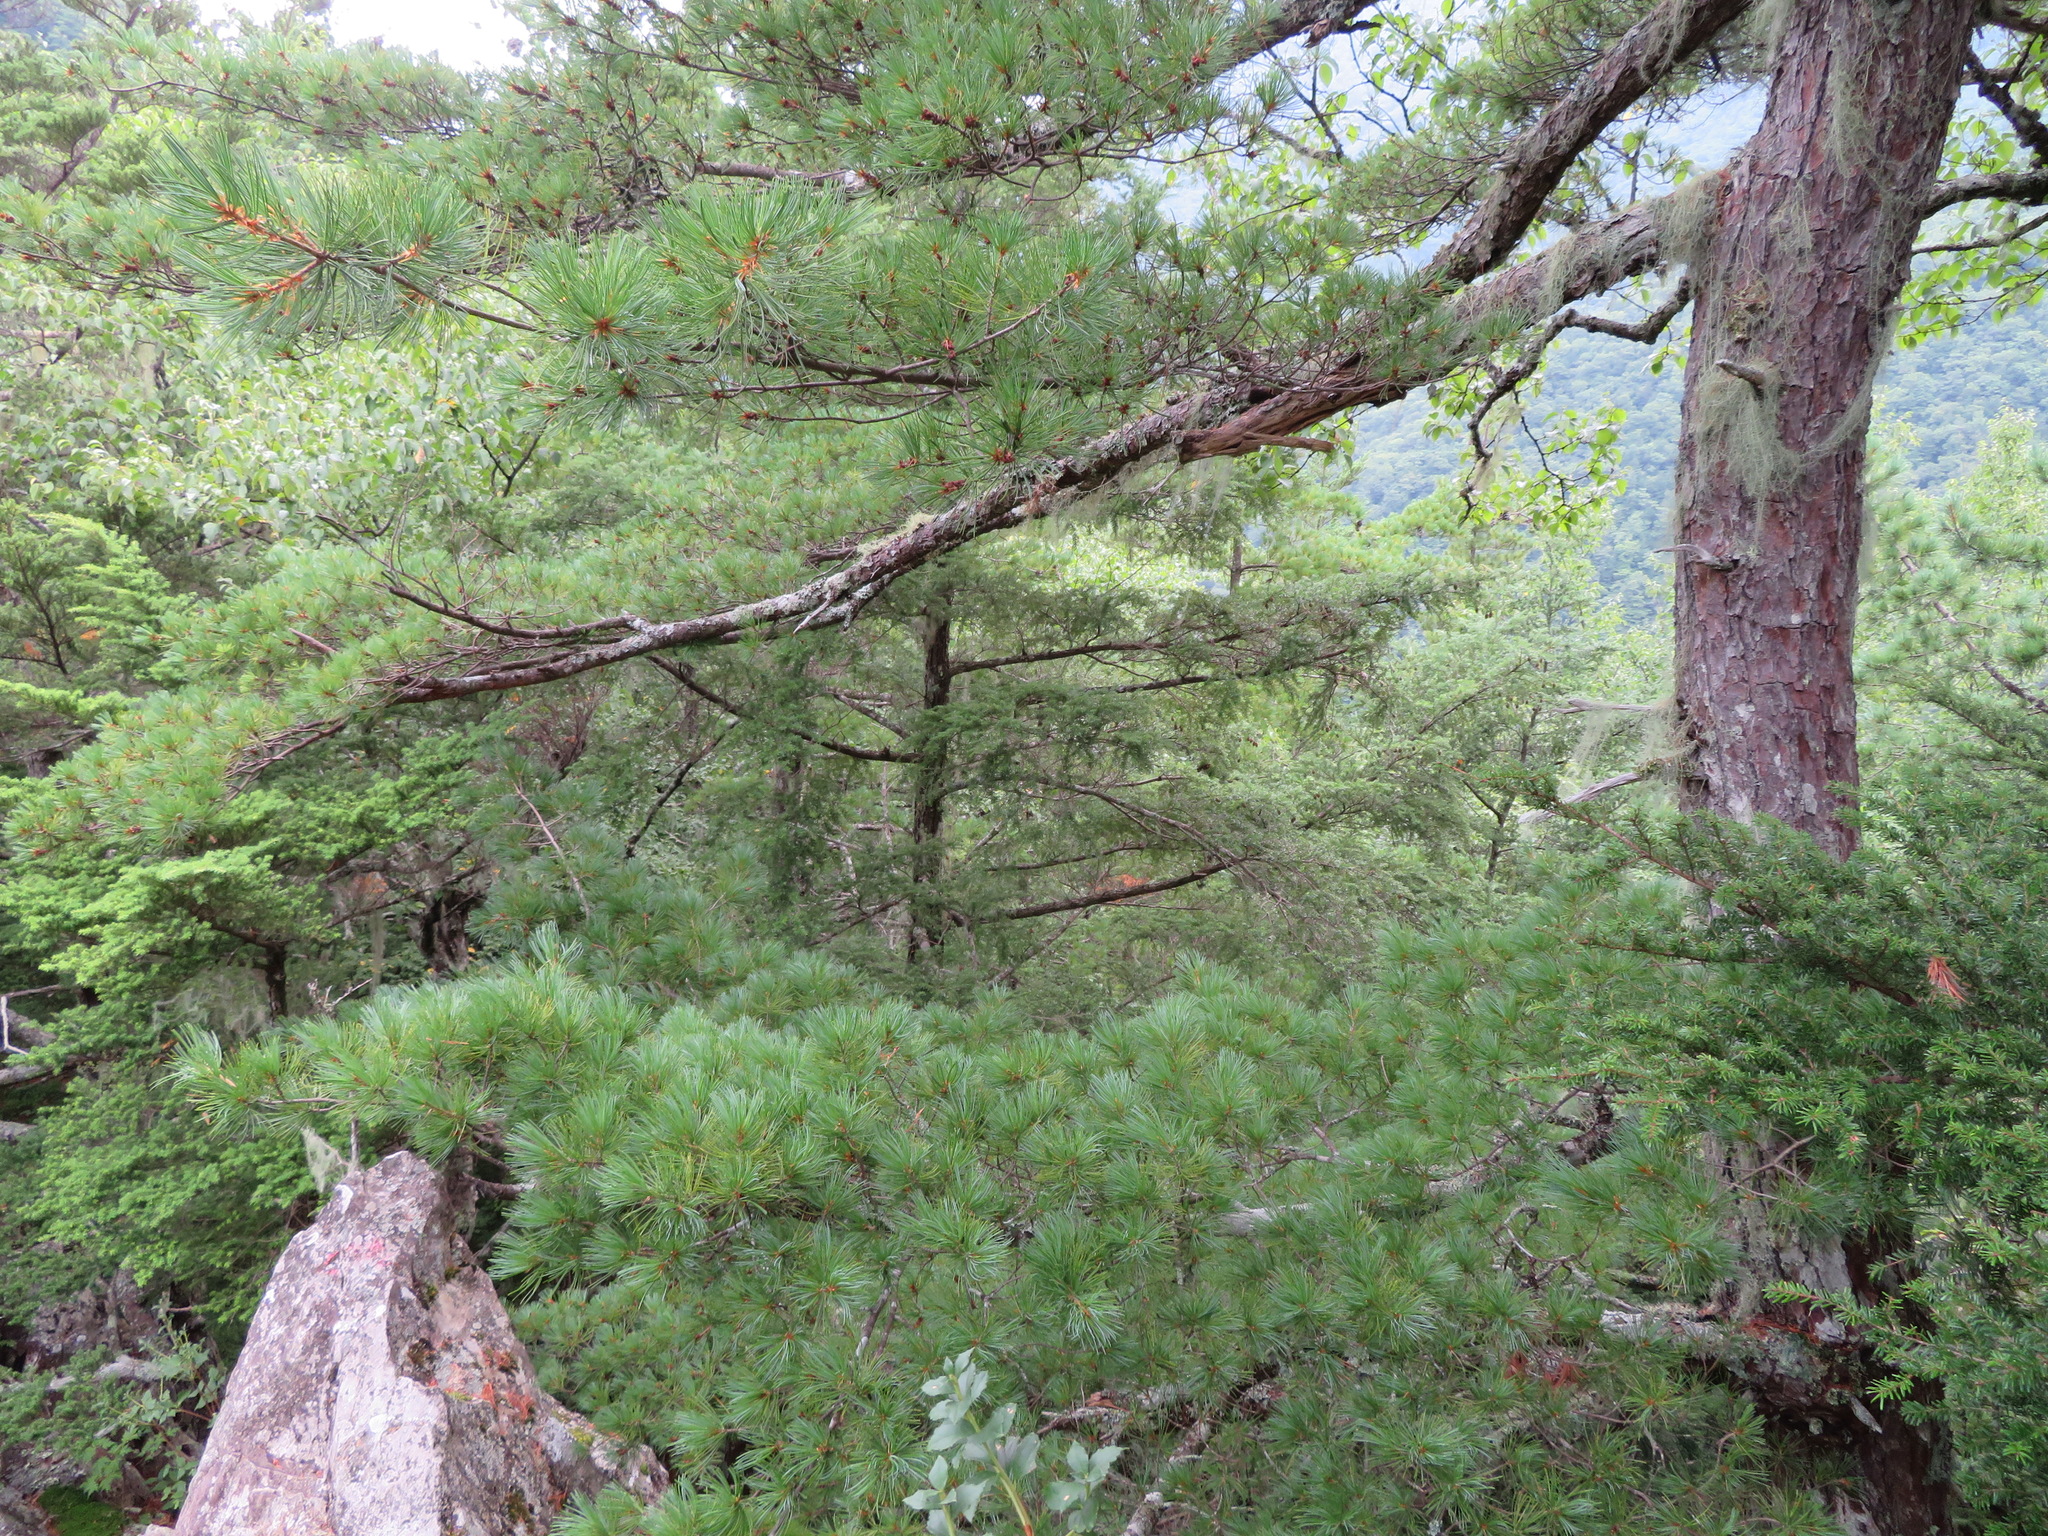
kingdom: Plantae
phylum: Tracheophyta
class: Pinopsida
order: Pinales
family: Pinaceae
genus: Pinus
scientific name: Pinus parviflora
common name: Japanese white pine
